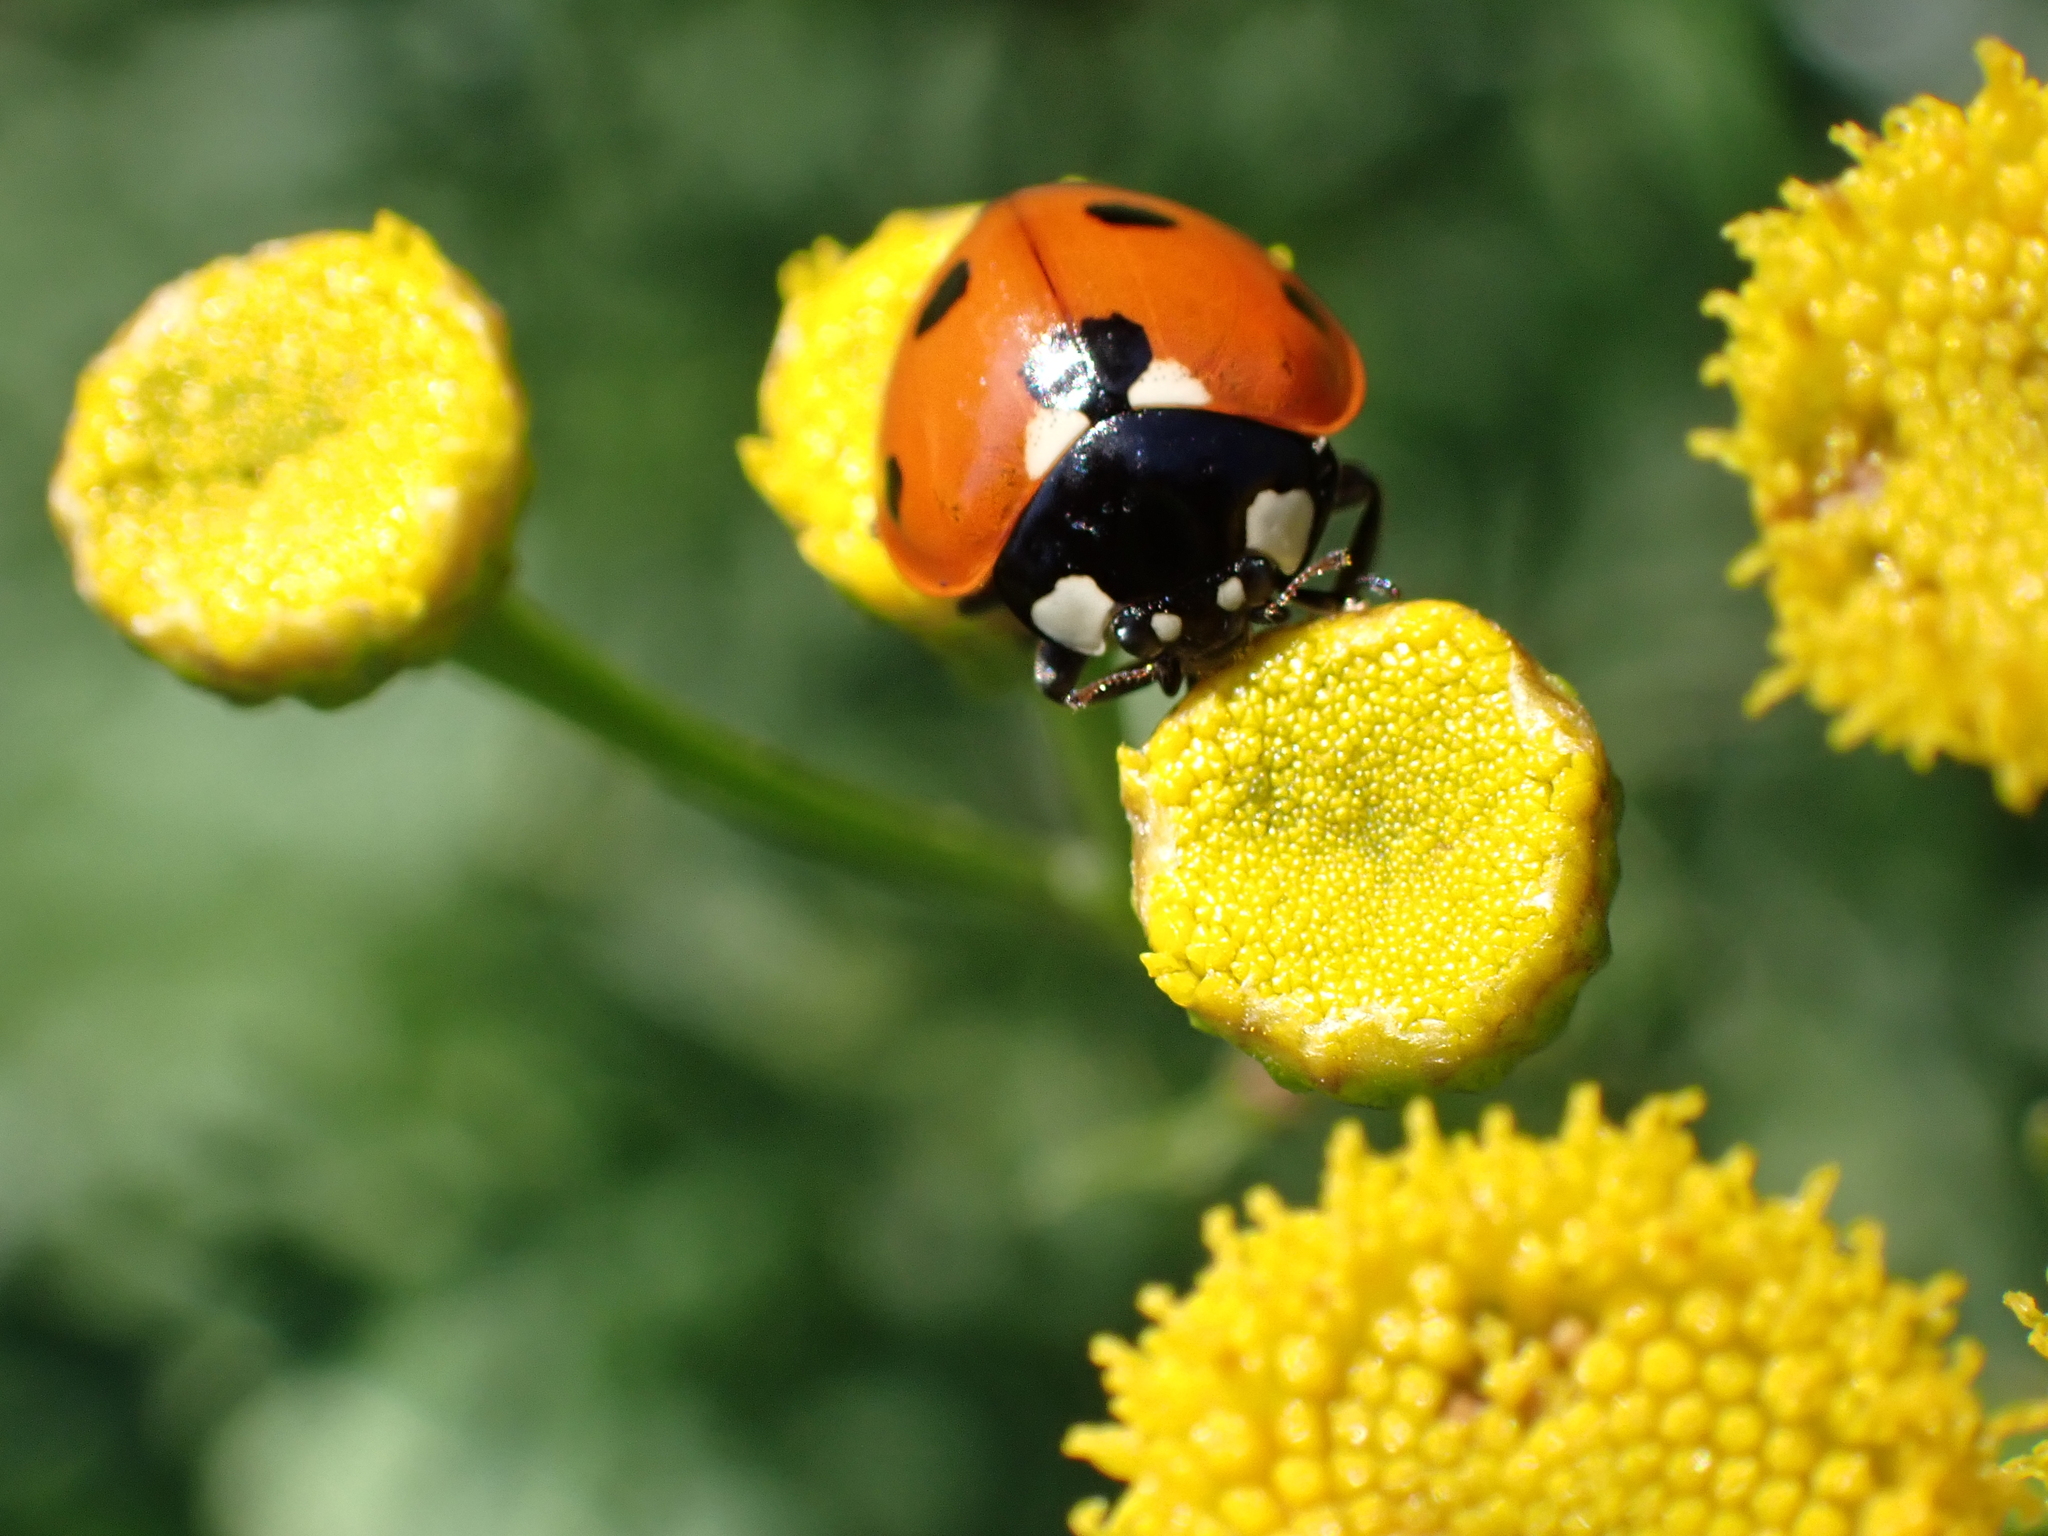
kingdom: Animalia
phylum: Arthropoda
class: Insecta
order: Coleoptera
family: Coccinellidae
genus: Coccinella
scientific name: Coccinella septempunctata
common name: Sevenspotted lady beetle
